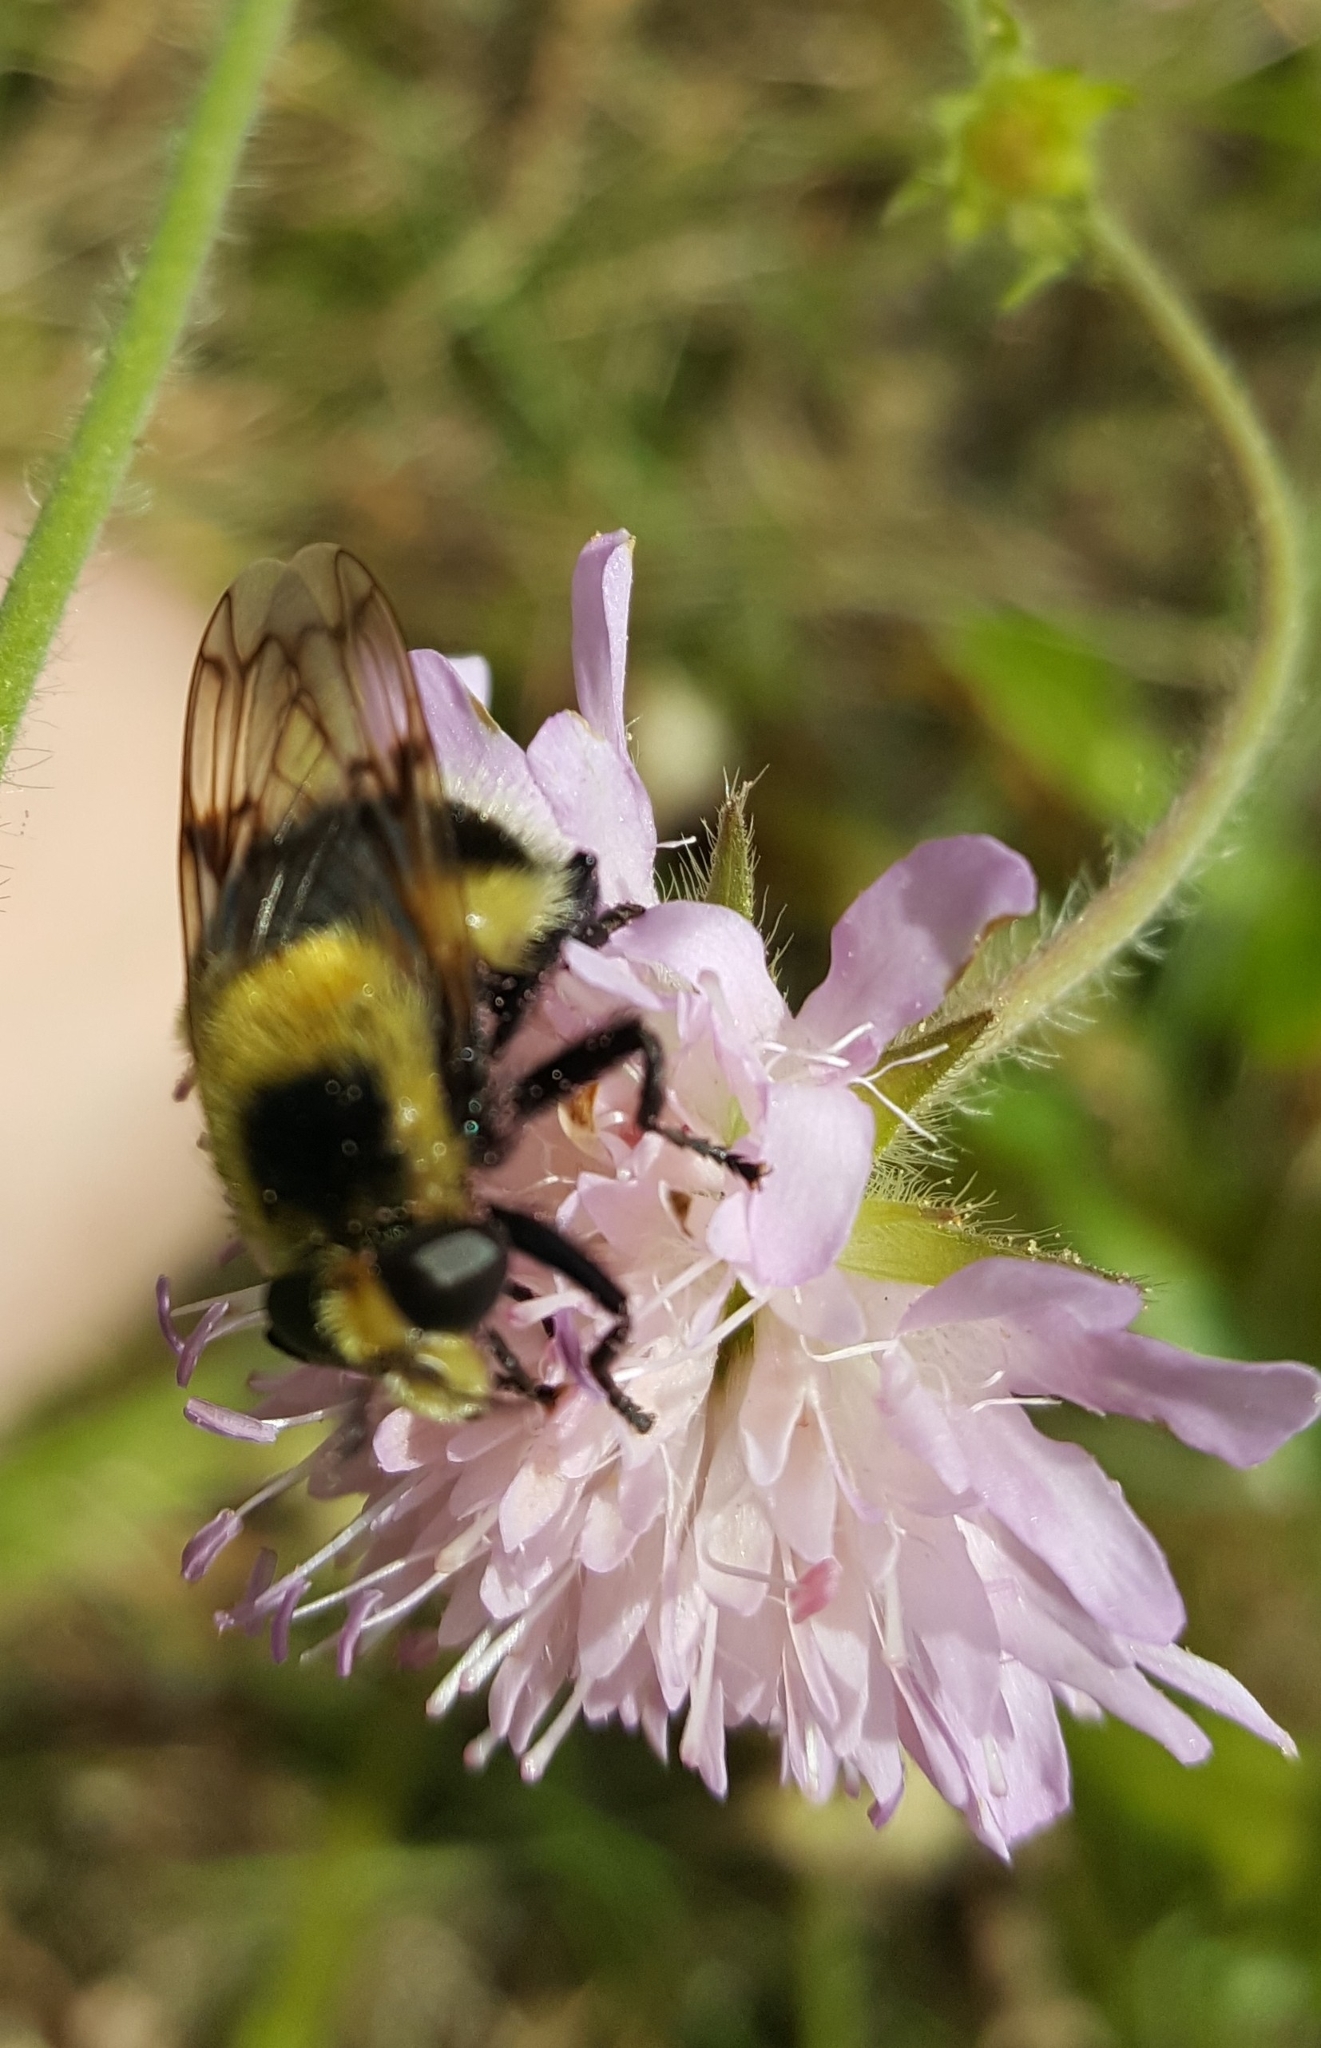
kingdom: Animalia
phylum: Arthropoda
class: Insecta
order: Diptera
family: Syrphidae
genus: Volucella
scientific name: Volucella bombylans
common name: Bumble bee hover fly
